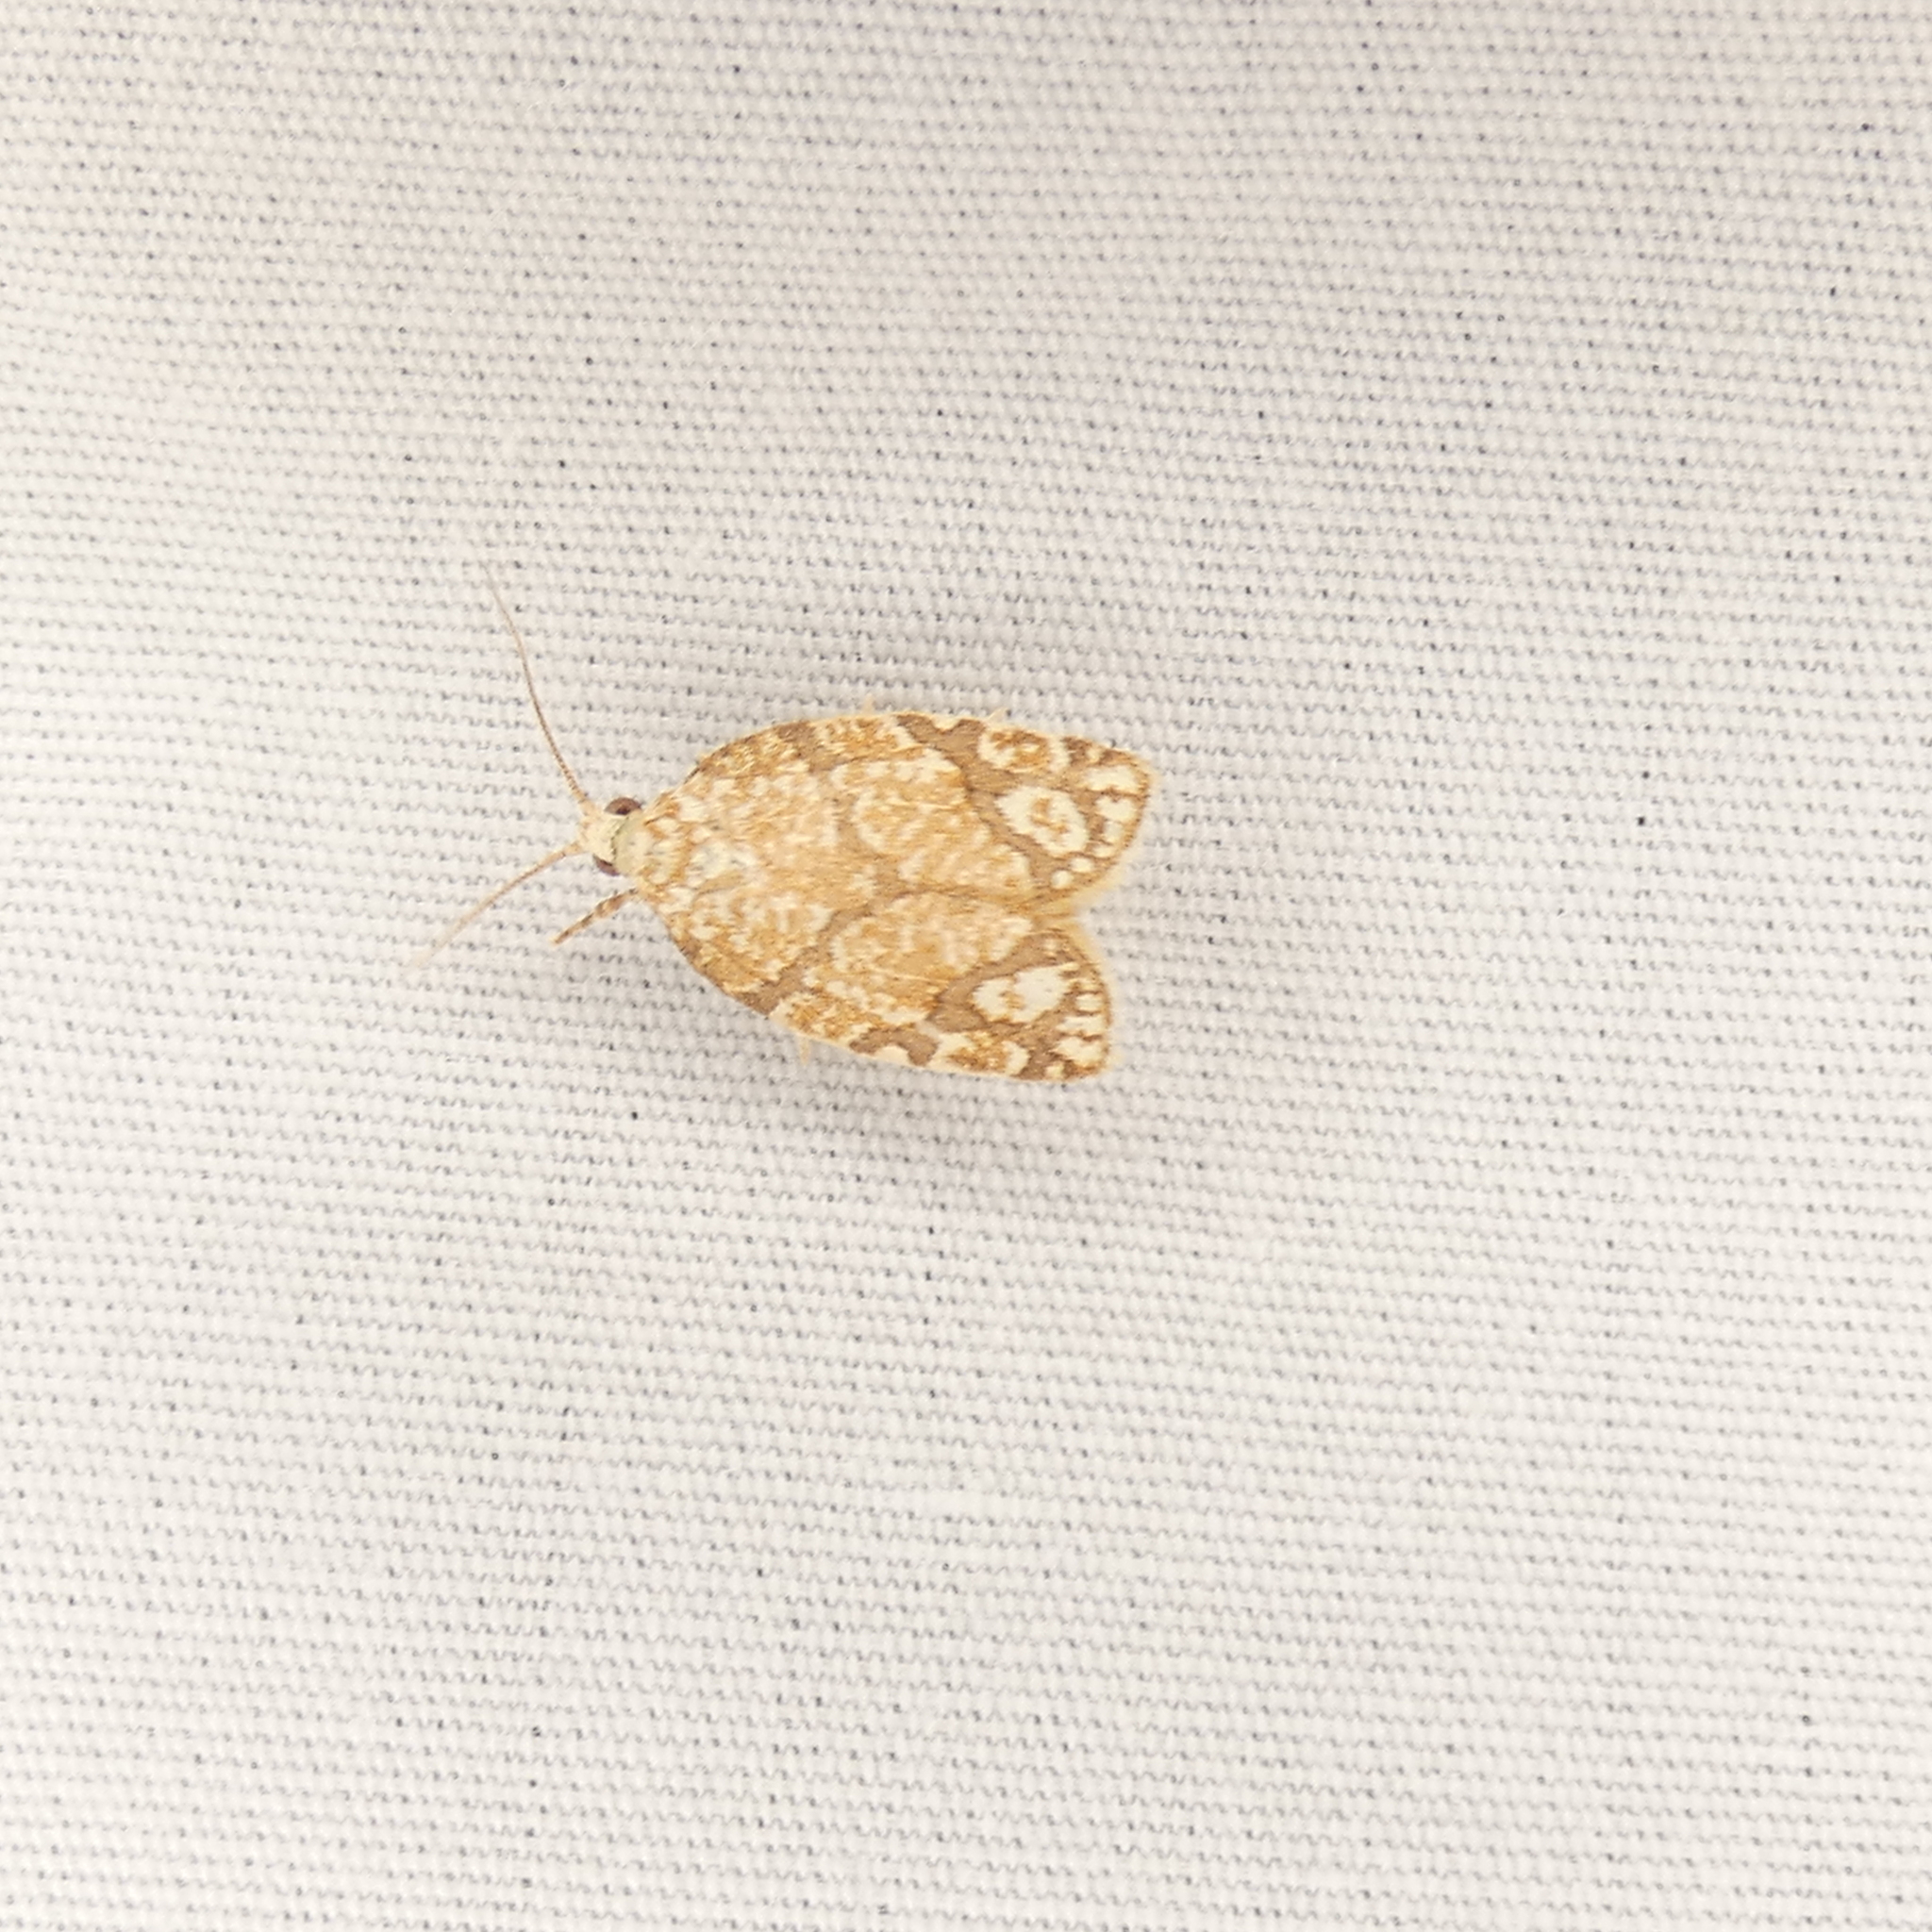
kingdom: Animalia
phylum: Arthropoda
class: Insecta
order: Lepidoptera
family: Tortricidae
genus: Argyrotaenia
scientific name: Argyrotaenia quercifoliana
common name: Yellow-winged oak leafroller moth
